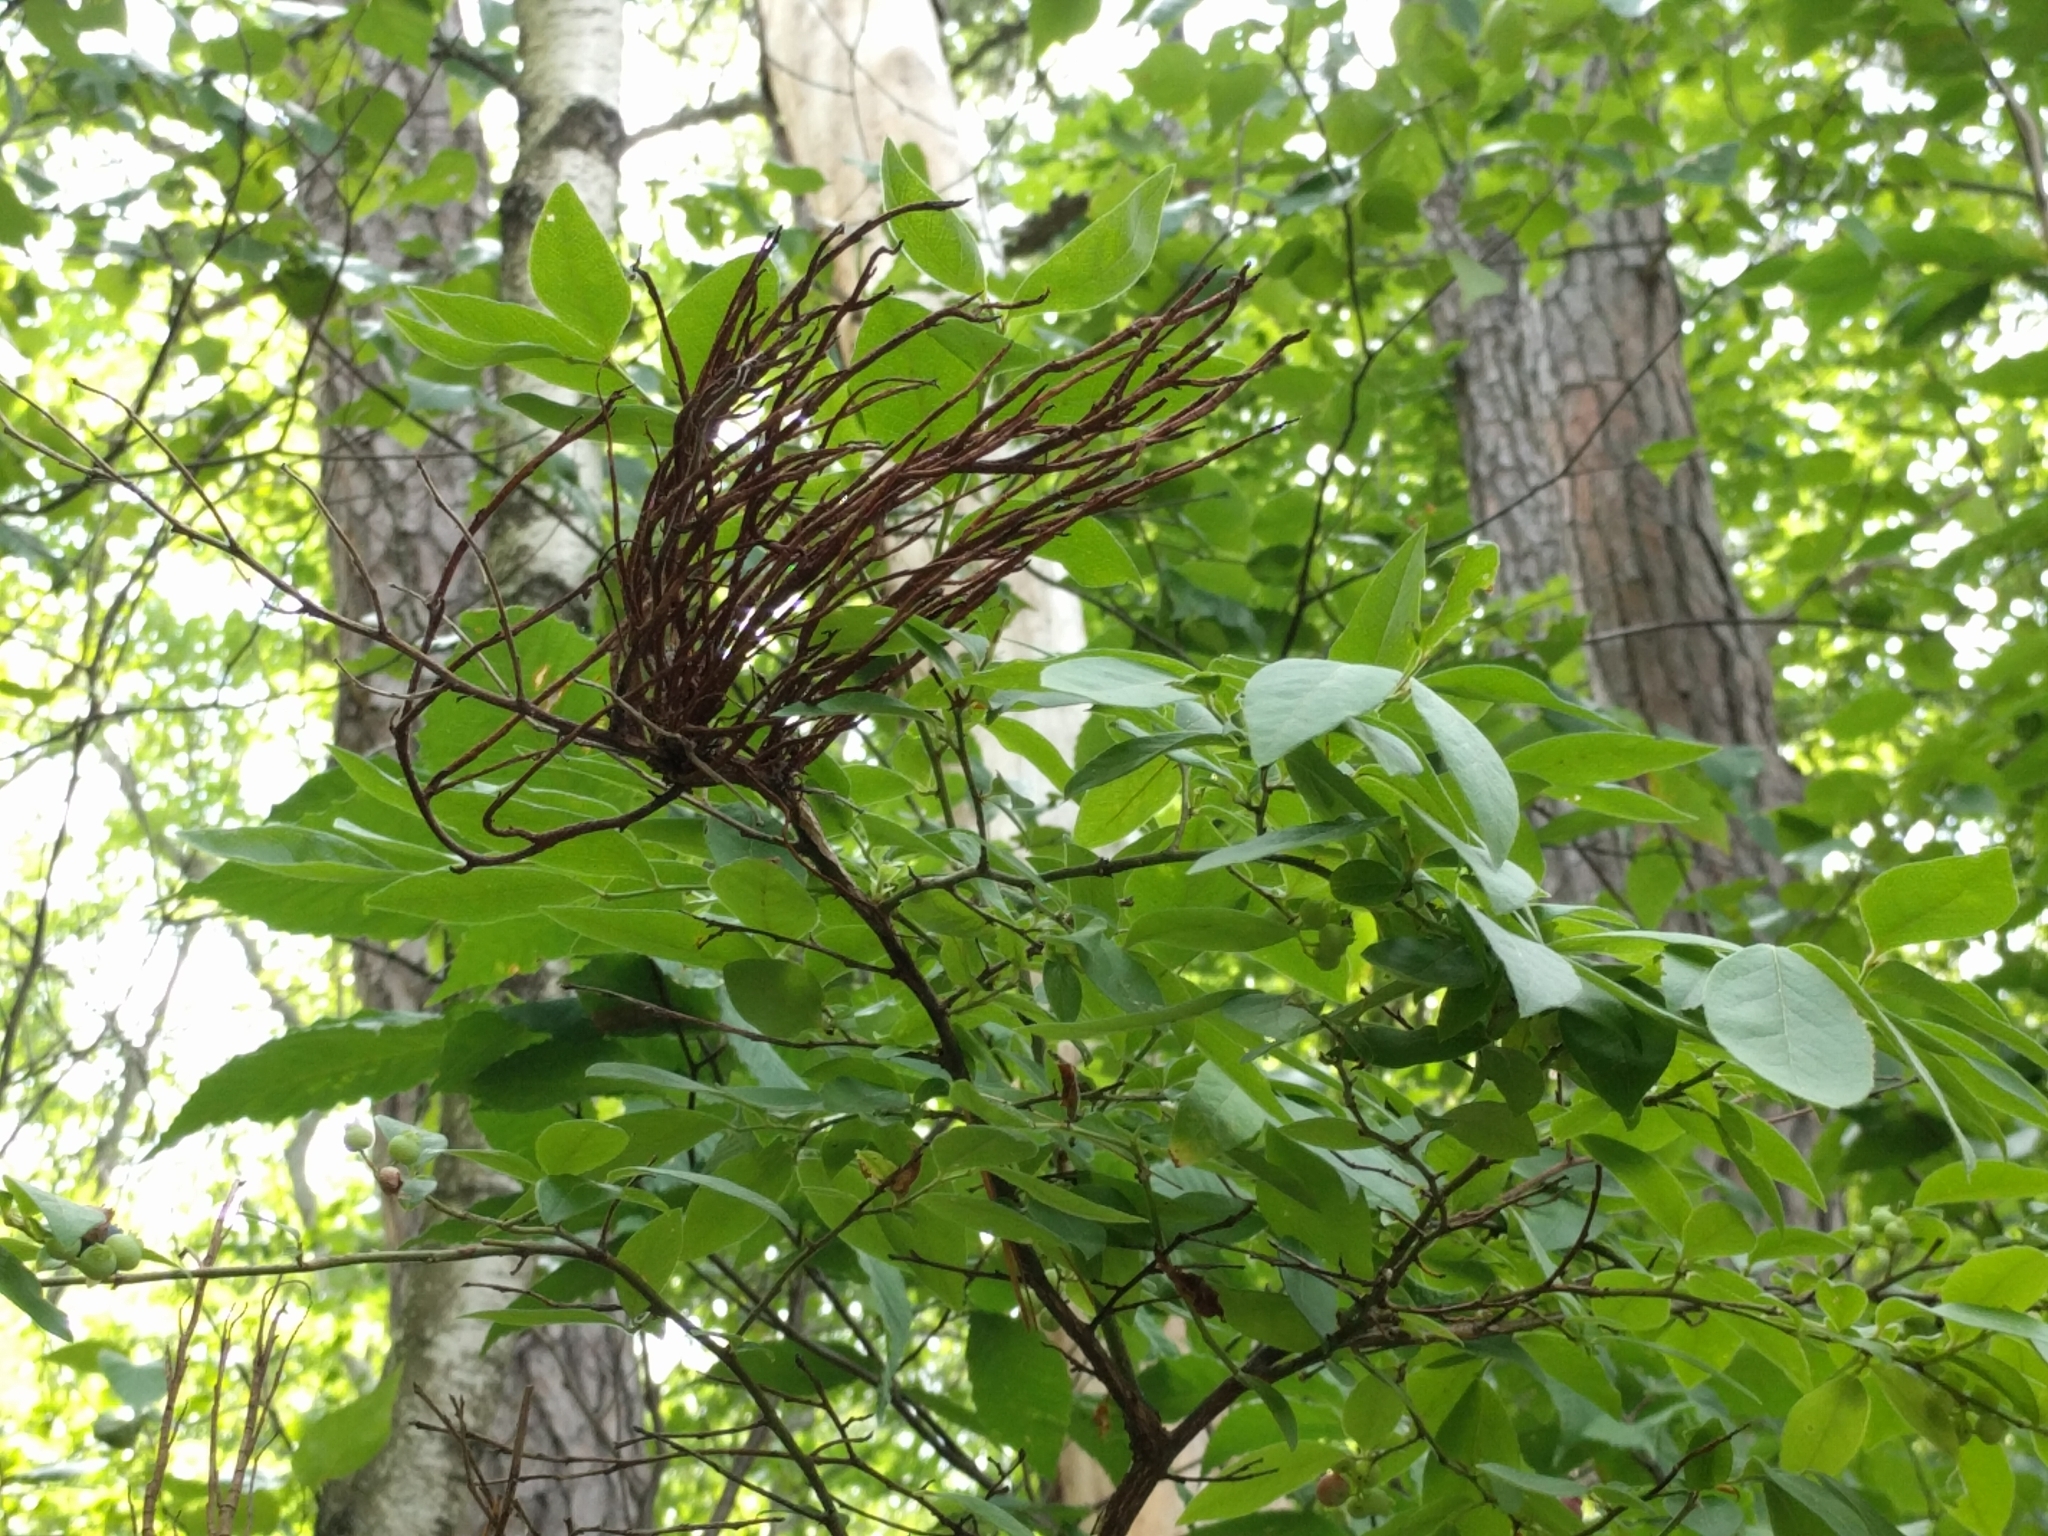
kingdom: Fungi
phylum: Basidiomycota
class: Pucciniomycetes
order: Pucciniales
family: Pucciniastraceae
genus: Calyptospora
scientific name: Calyptospora columnaris
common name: Huckleberry broom rust fungus
